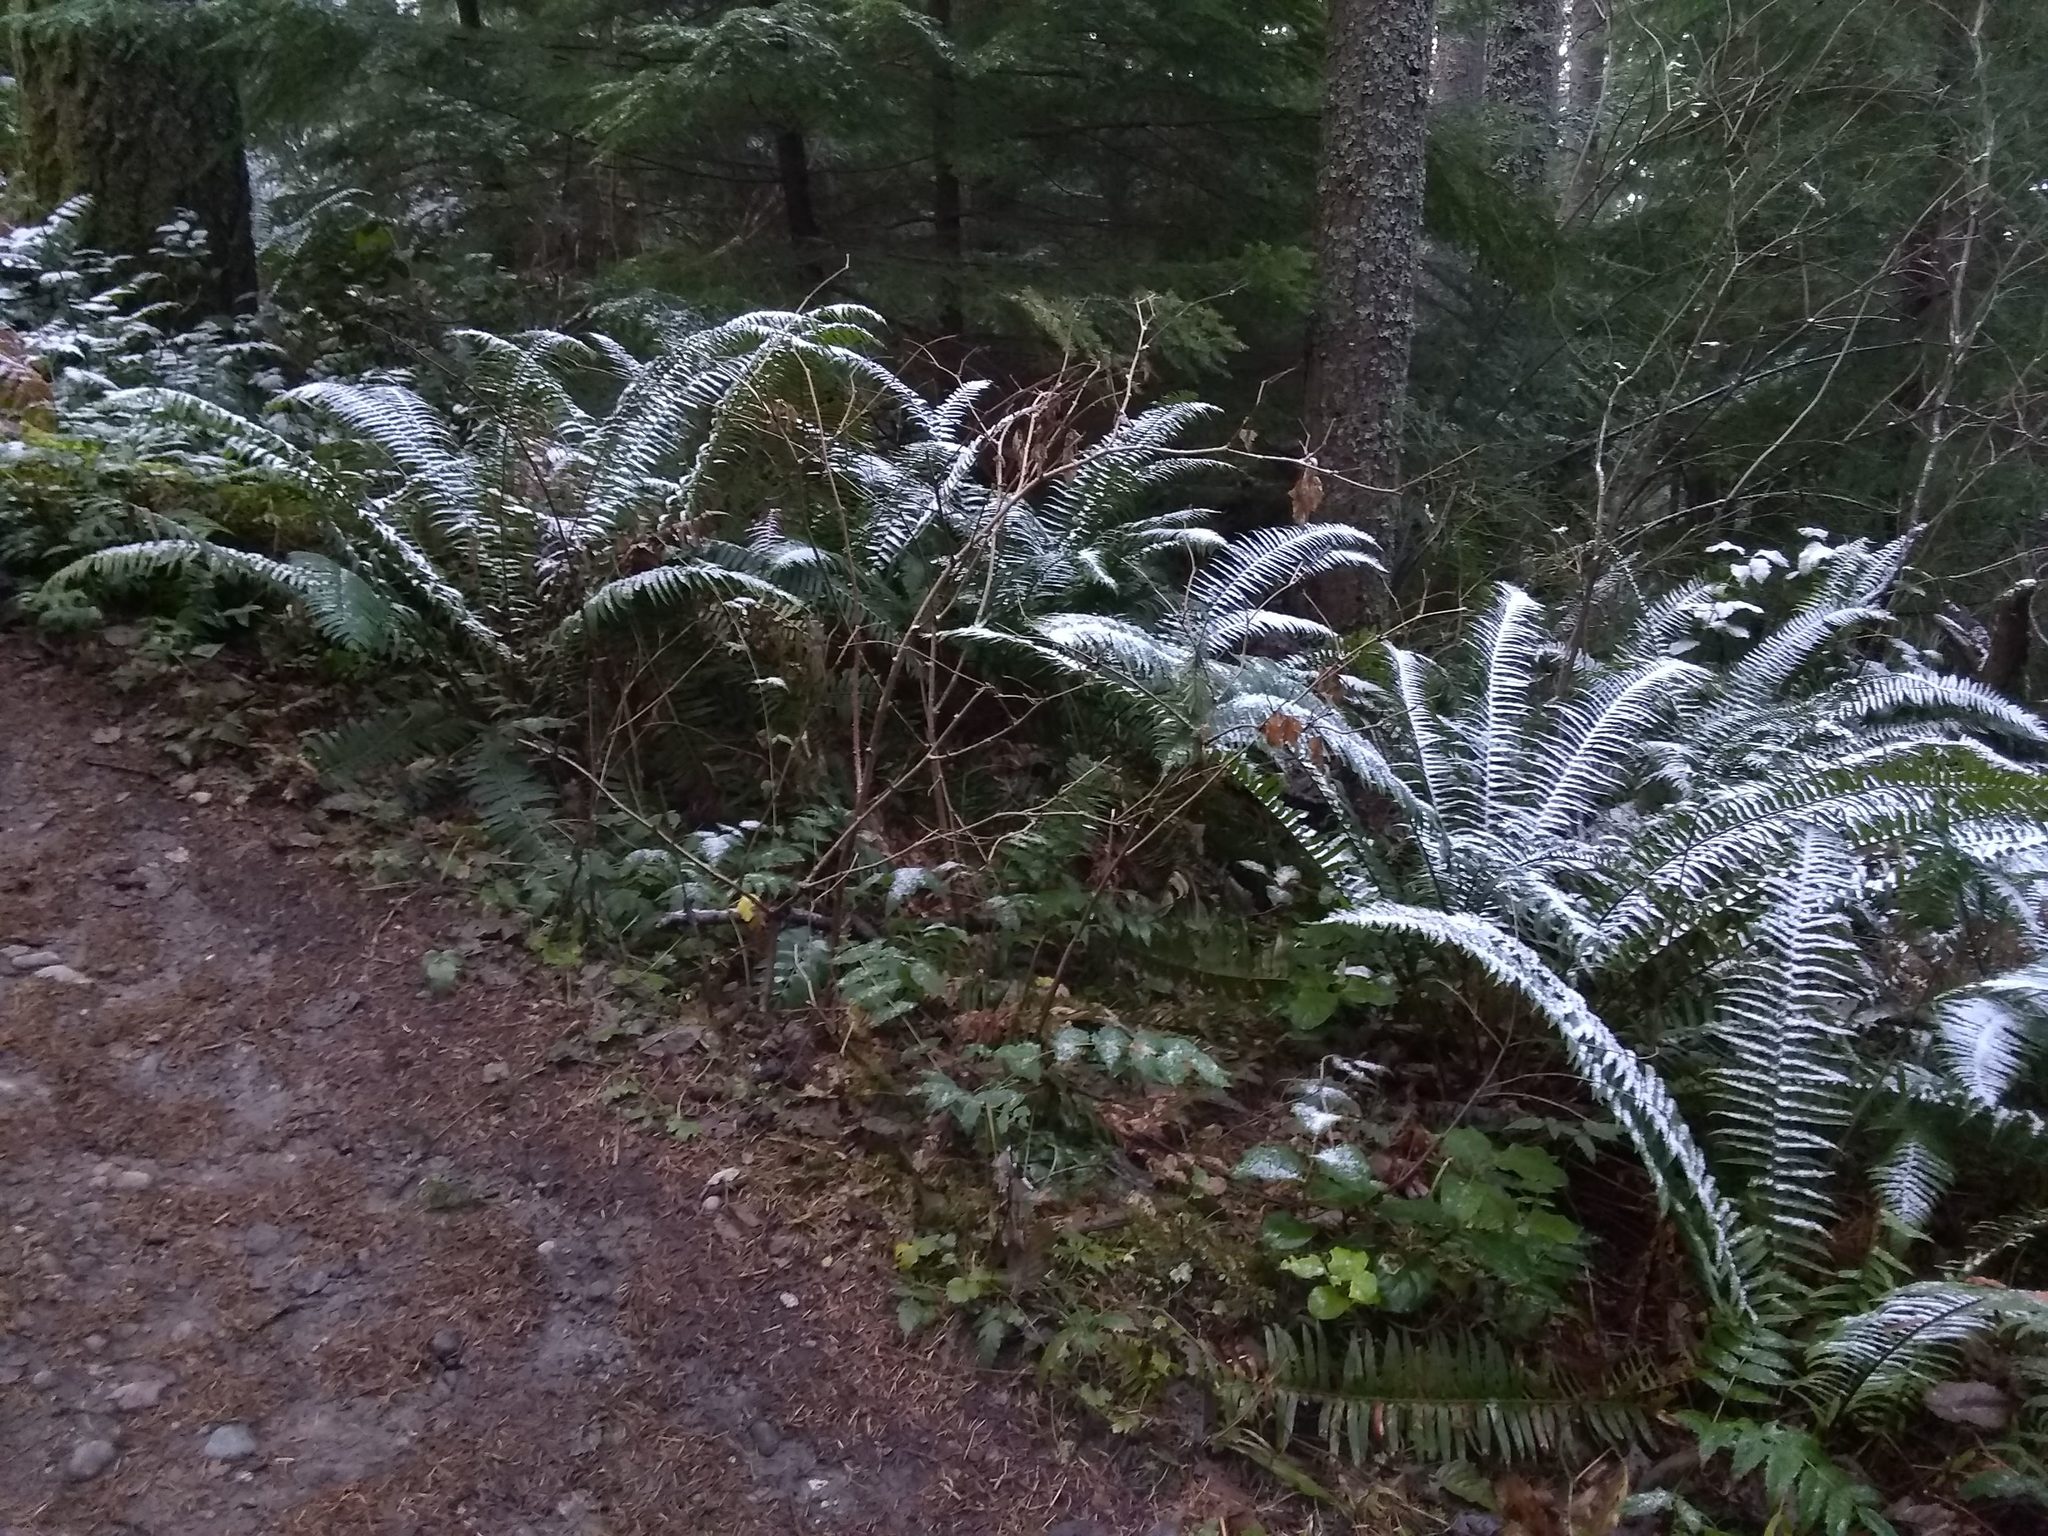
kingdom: Plantae
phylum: Tracheophyta
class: Polypodiopsida
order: Polypodiales
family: Dryopteridaceae
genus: Polystichum
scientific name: Polystichum munitum
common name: Western sword-fern
